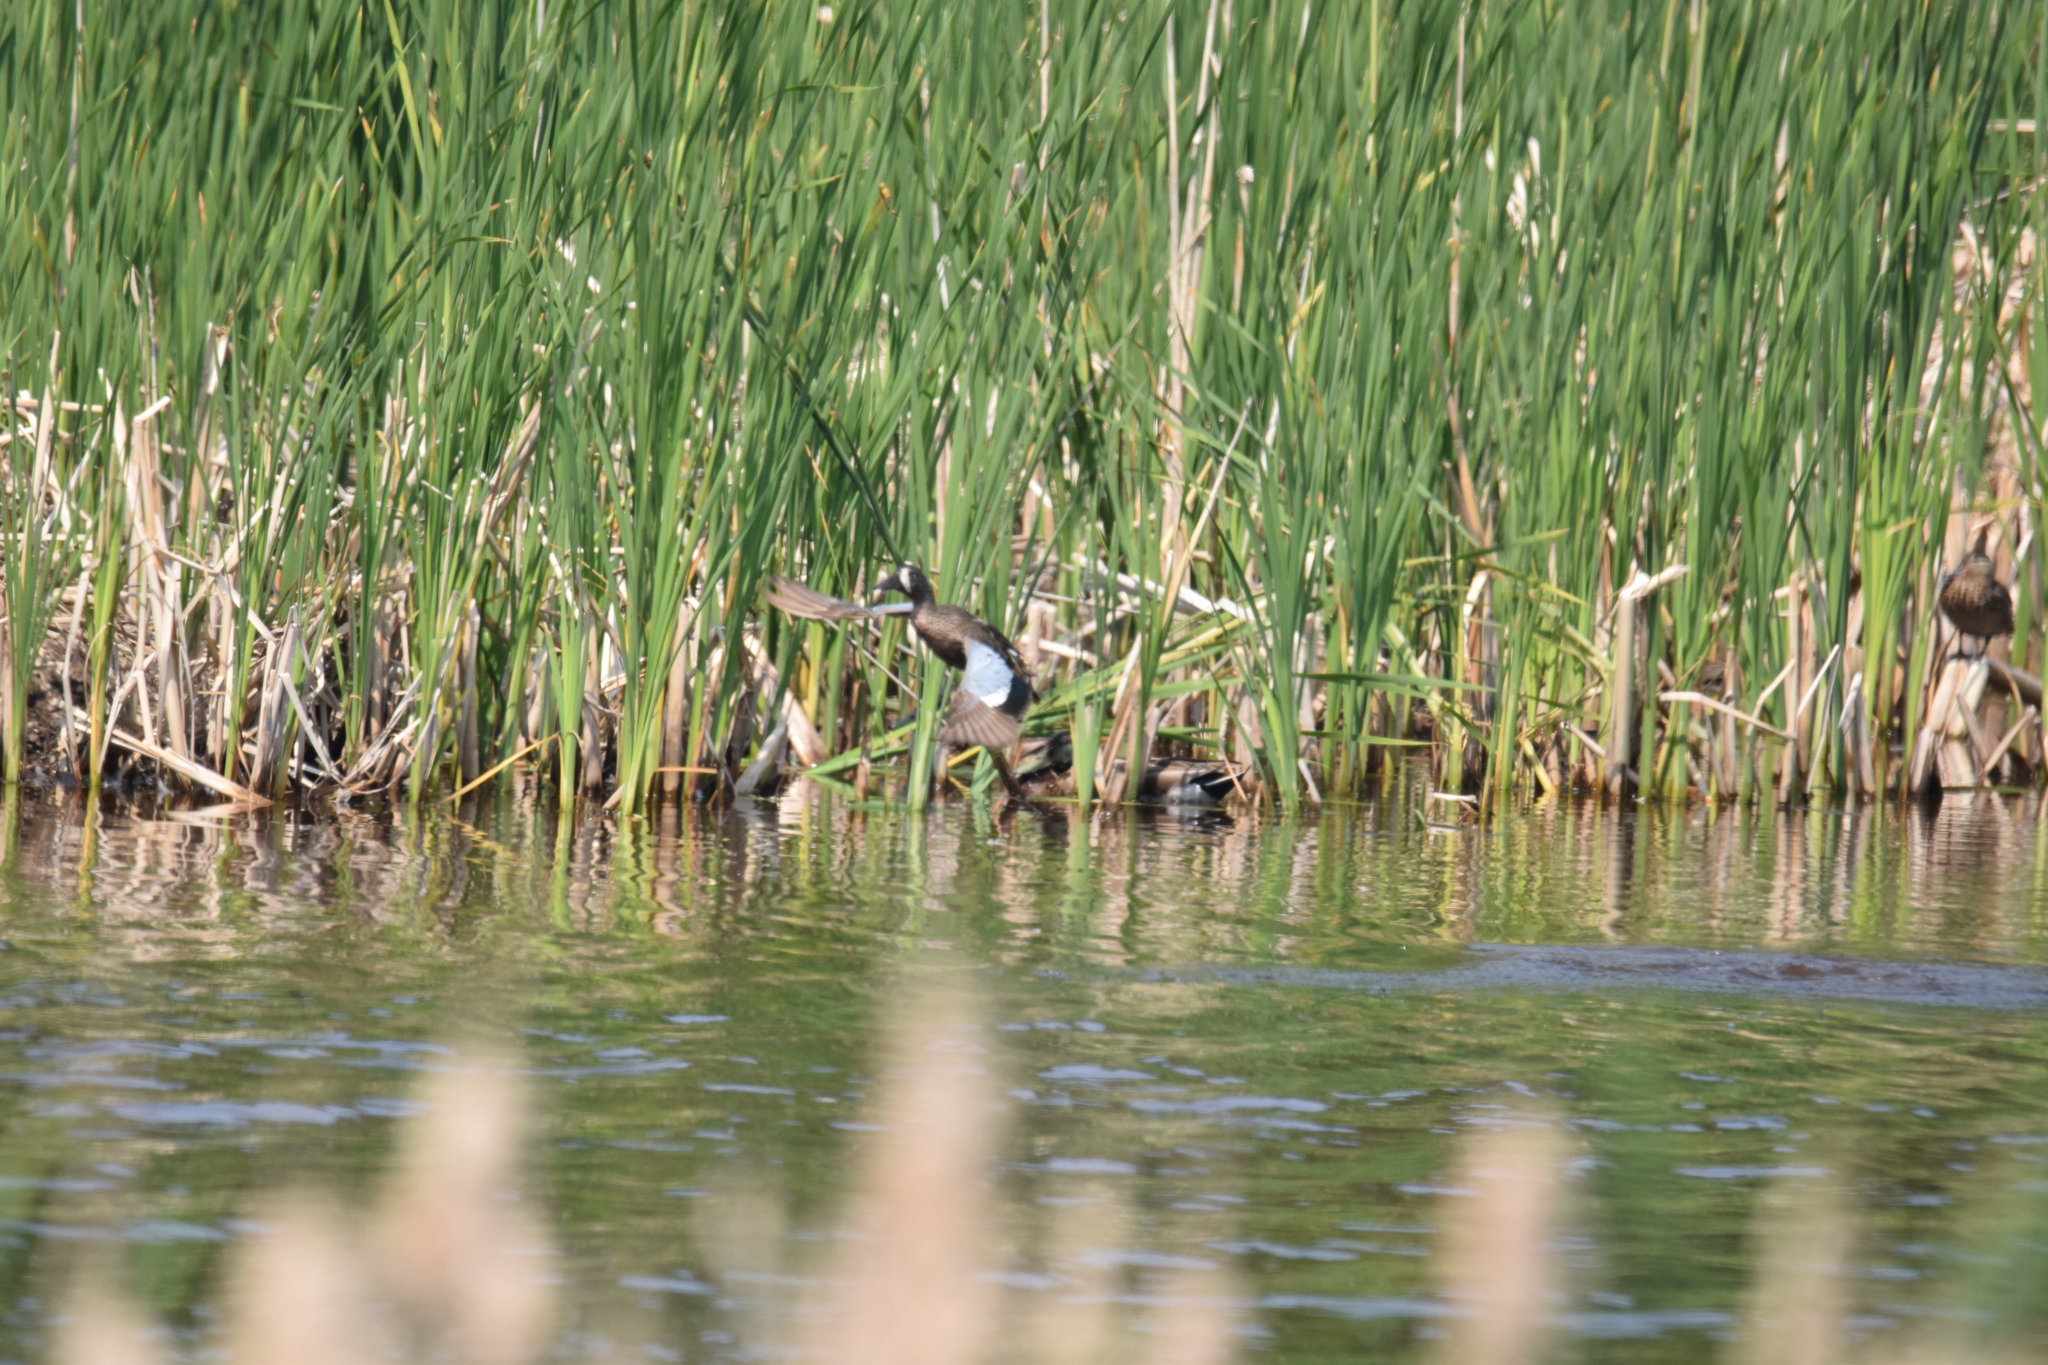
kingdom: Animalia
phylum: Chordata
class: Aves
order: Anseriformes
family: Anatidae
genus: Spatula
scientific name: Spatula discors
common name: Blue-winged teal
